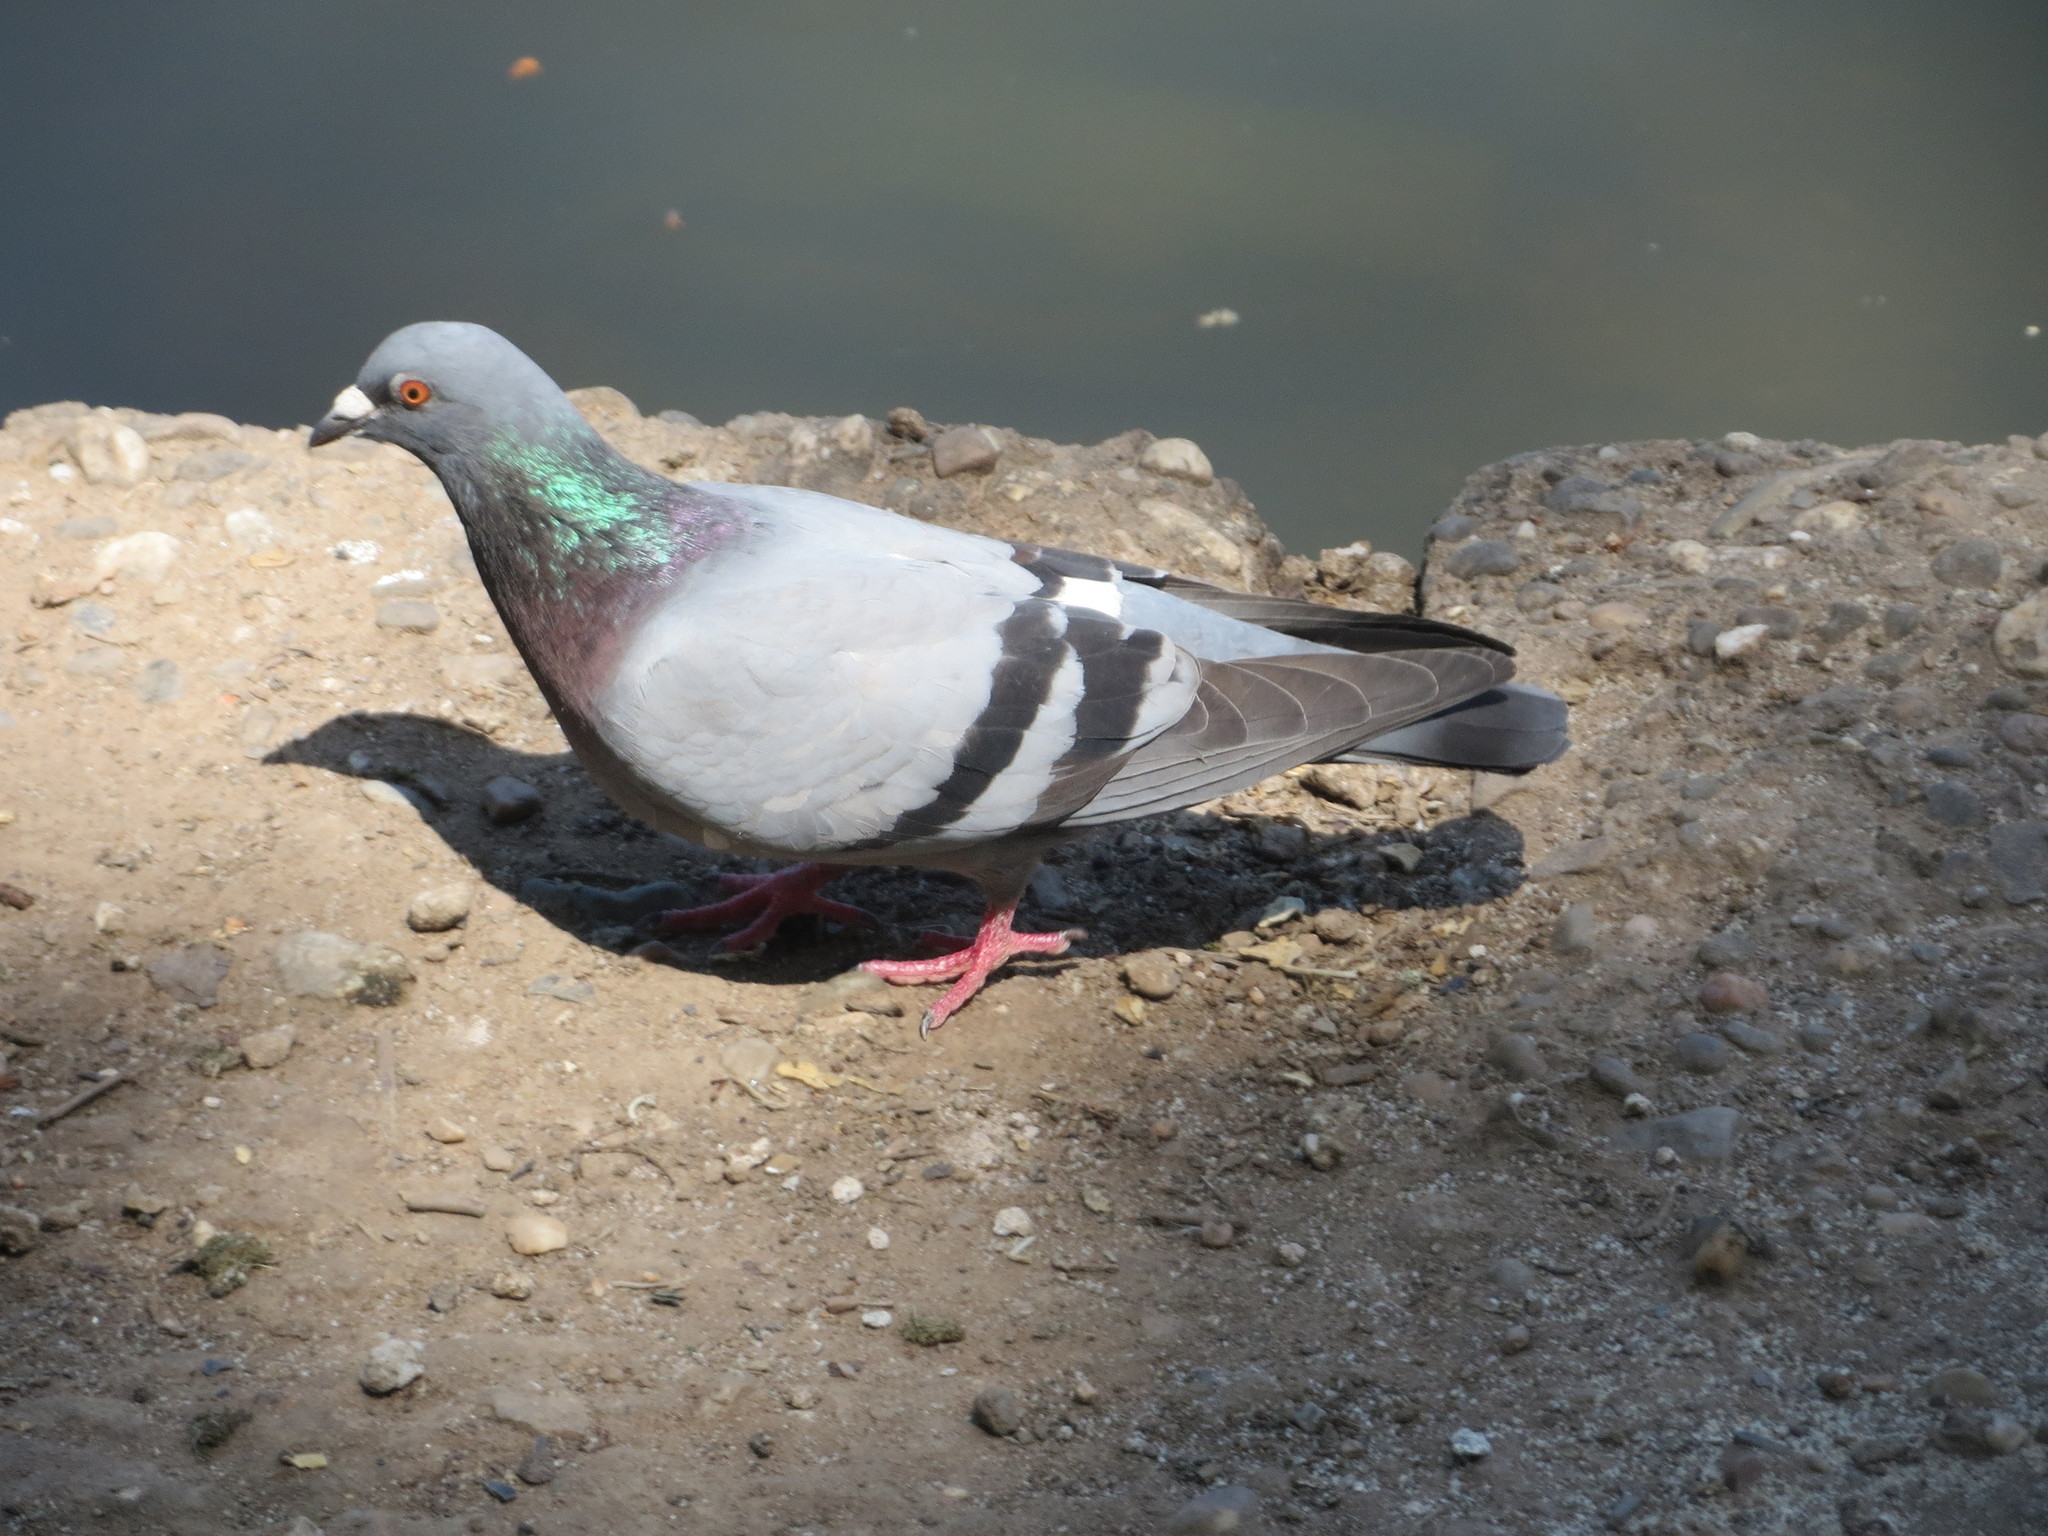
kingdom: Animalia
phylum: Chordata
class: Aves
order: Columbiformes
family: Columbidae
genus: Columba
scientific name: Columba livia
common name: Rock pigeon
